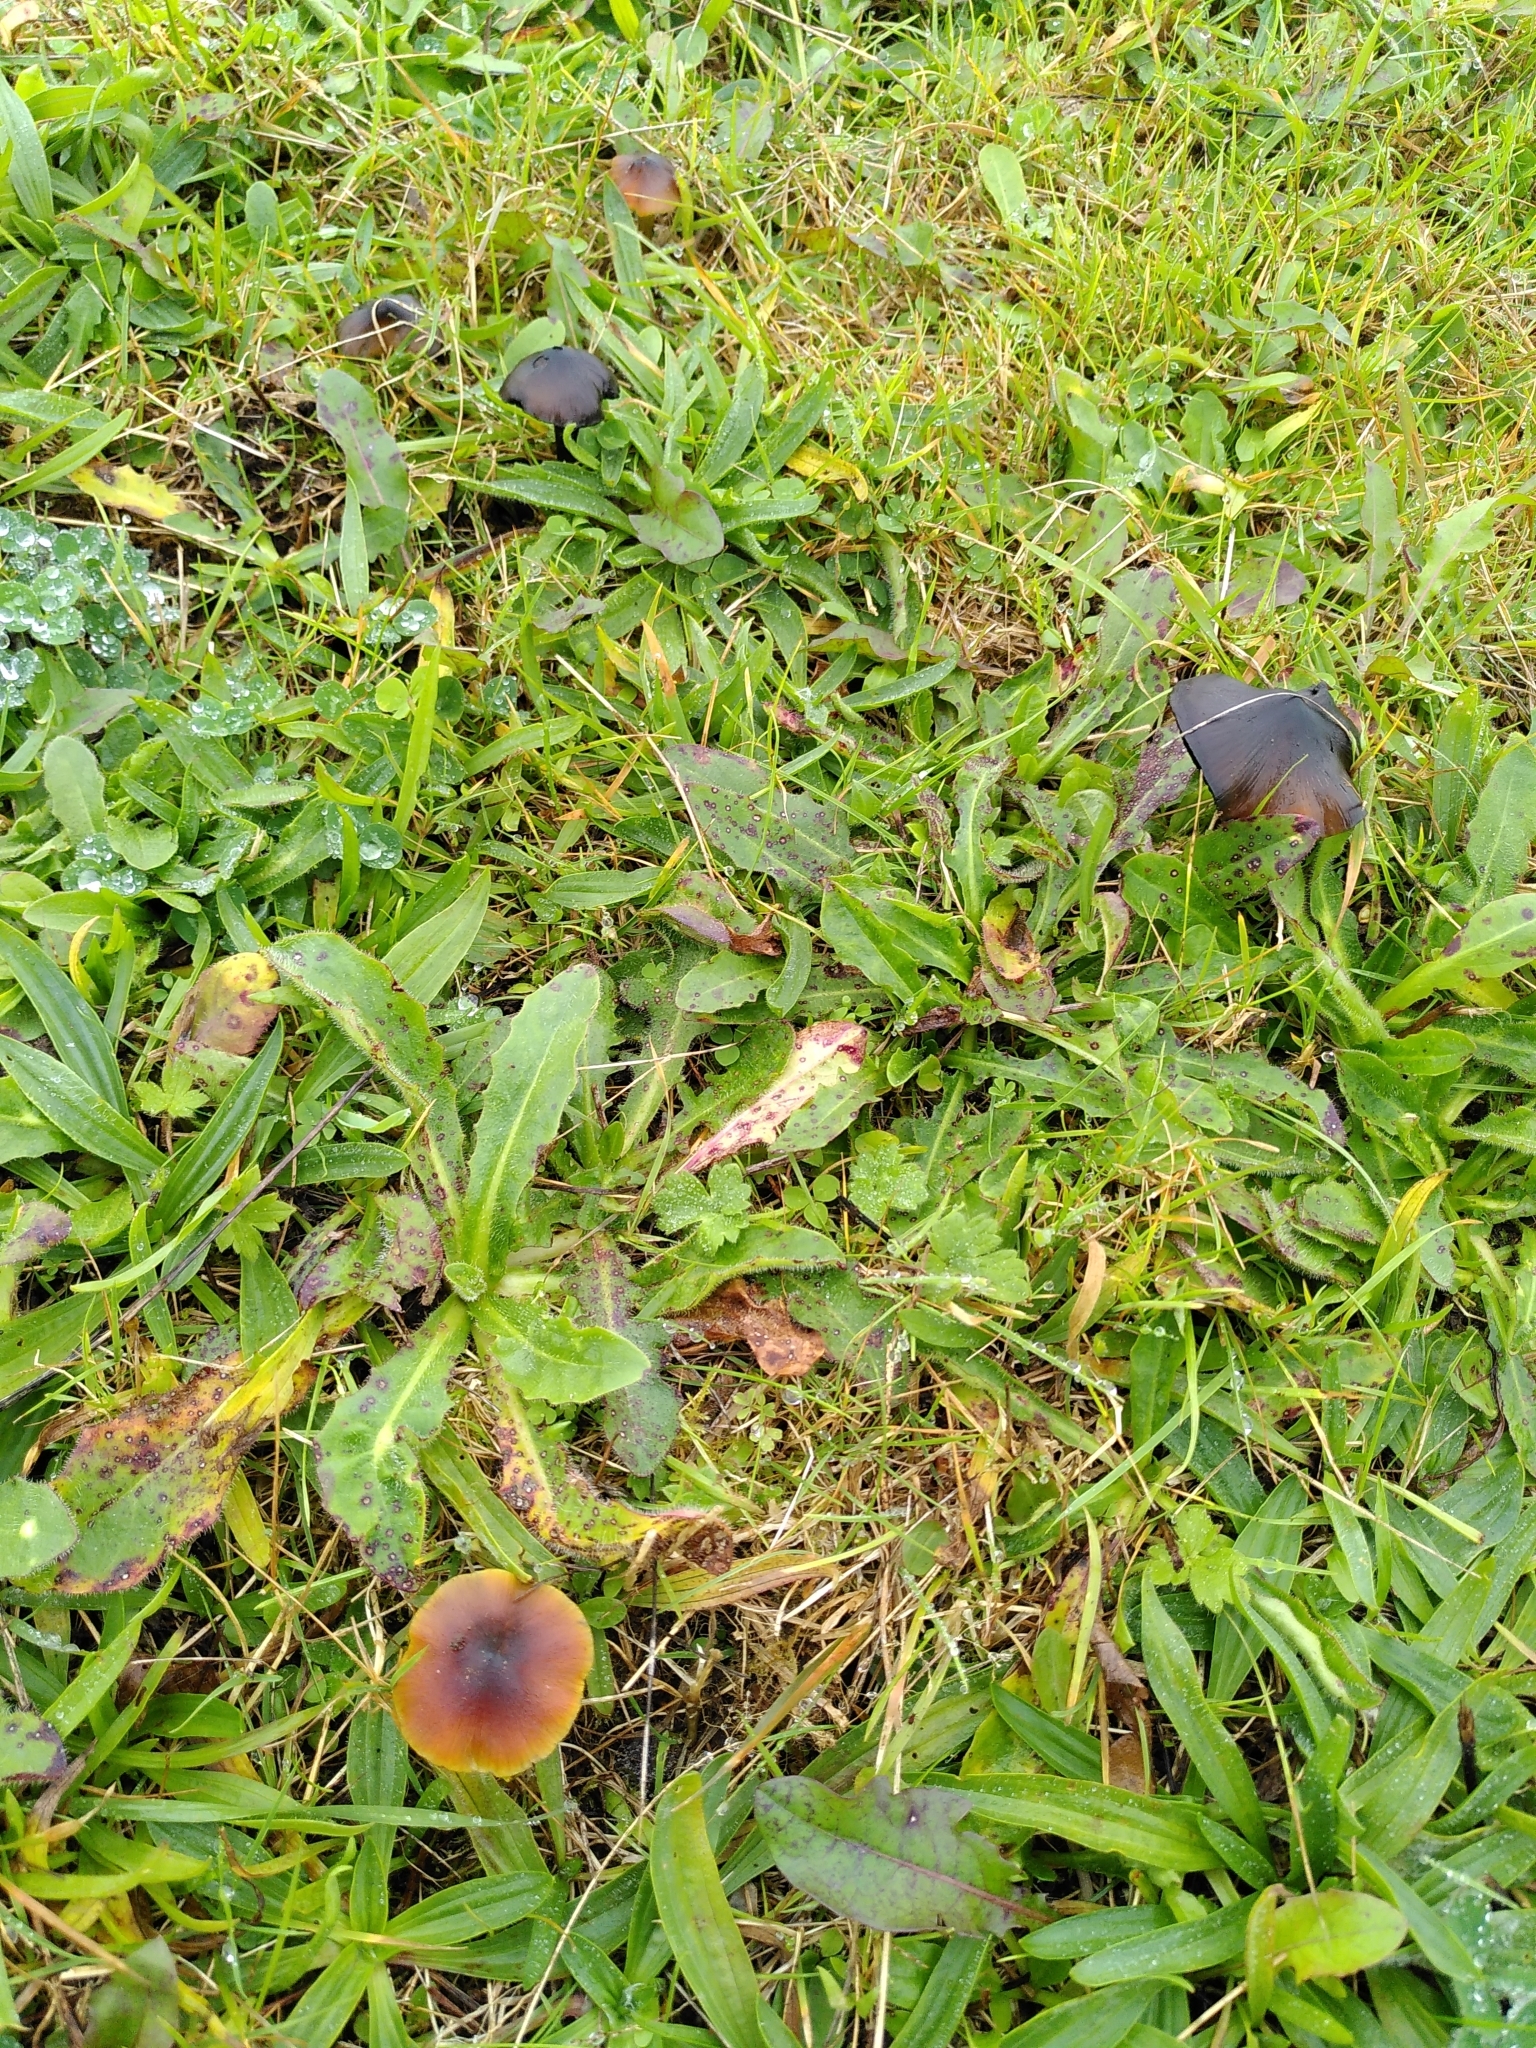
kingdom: Fungi
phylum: Basidiomycota
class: Agaricomycetes
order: Agaricales
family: Hygrophoraceae
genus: Hygrocybe
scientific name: Hygrocybe conica
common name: Blackening wax-cap
